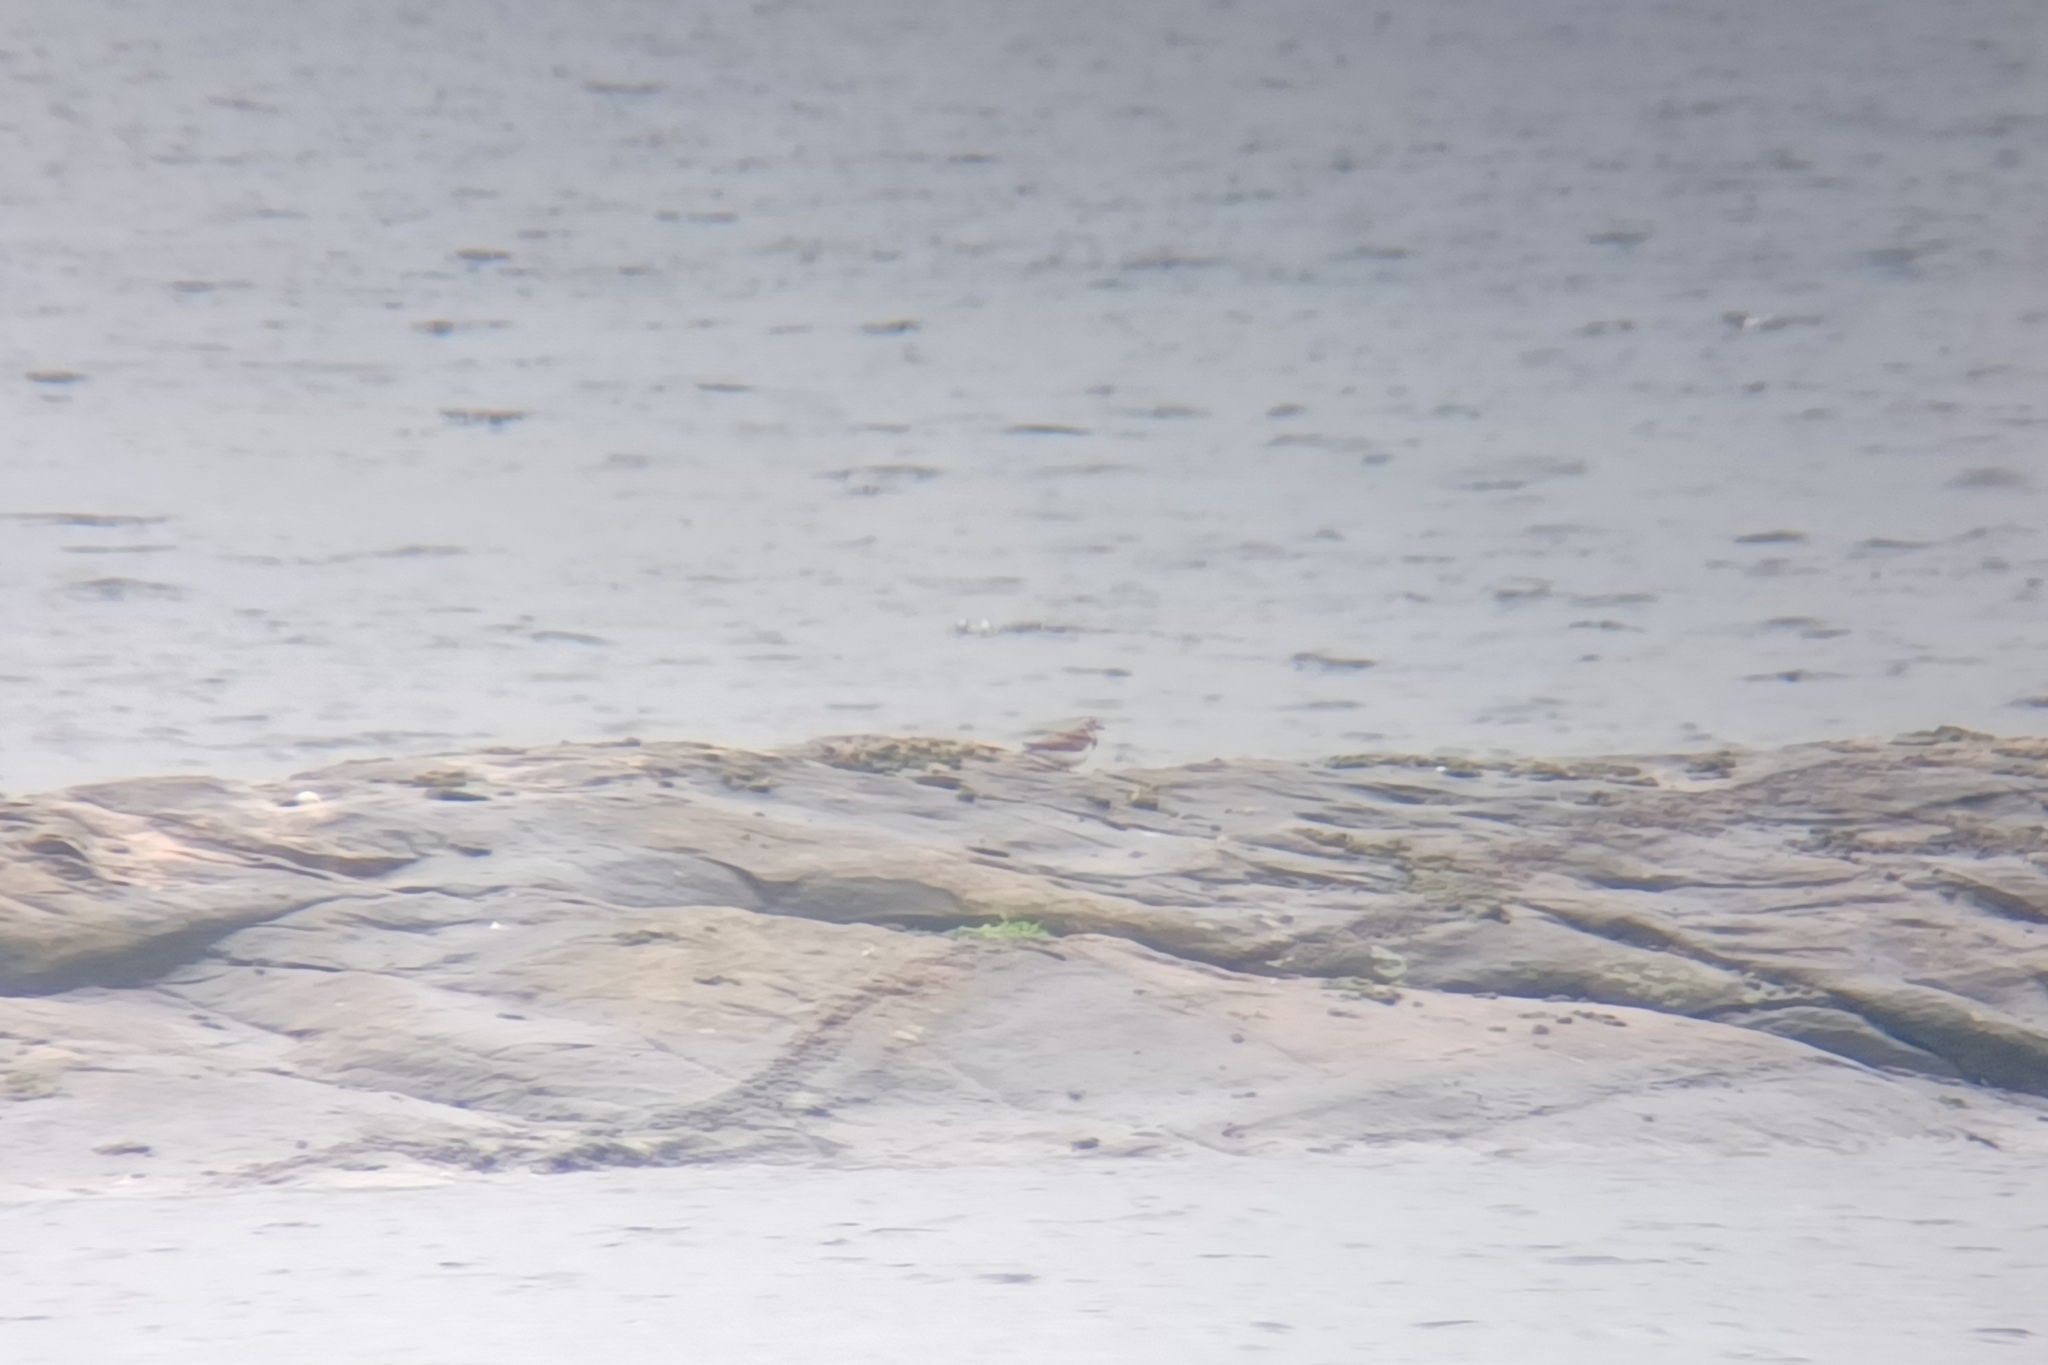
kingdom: Animalia
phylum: Chordata
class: Aves
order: Charadriiformes
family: Scolopacidae
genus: Arenaria
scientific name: Arenaria interpres
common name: Ruddy turnstone
